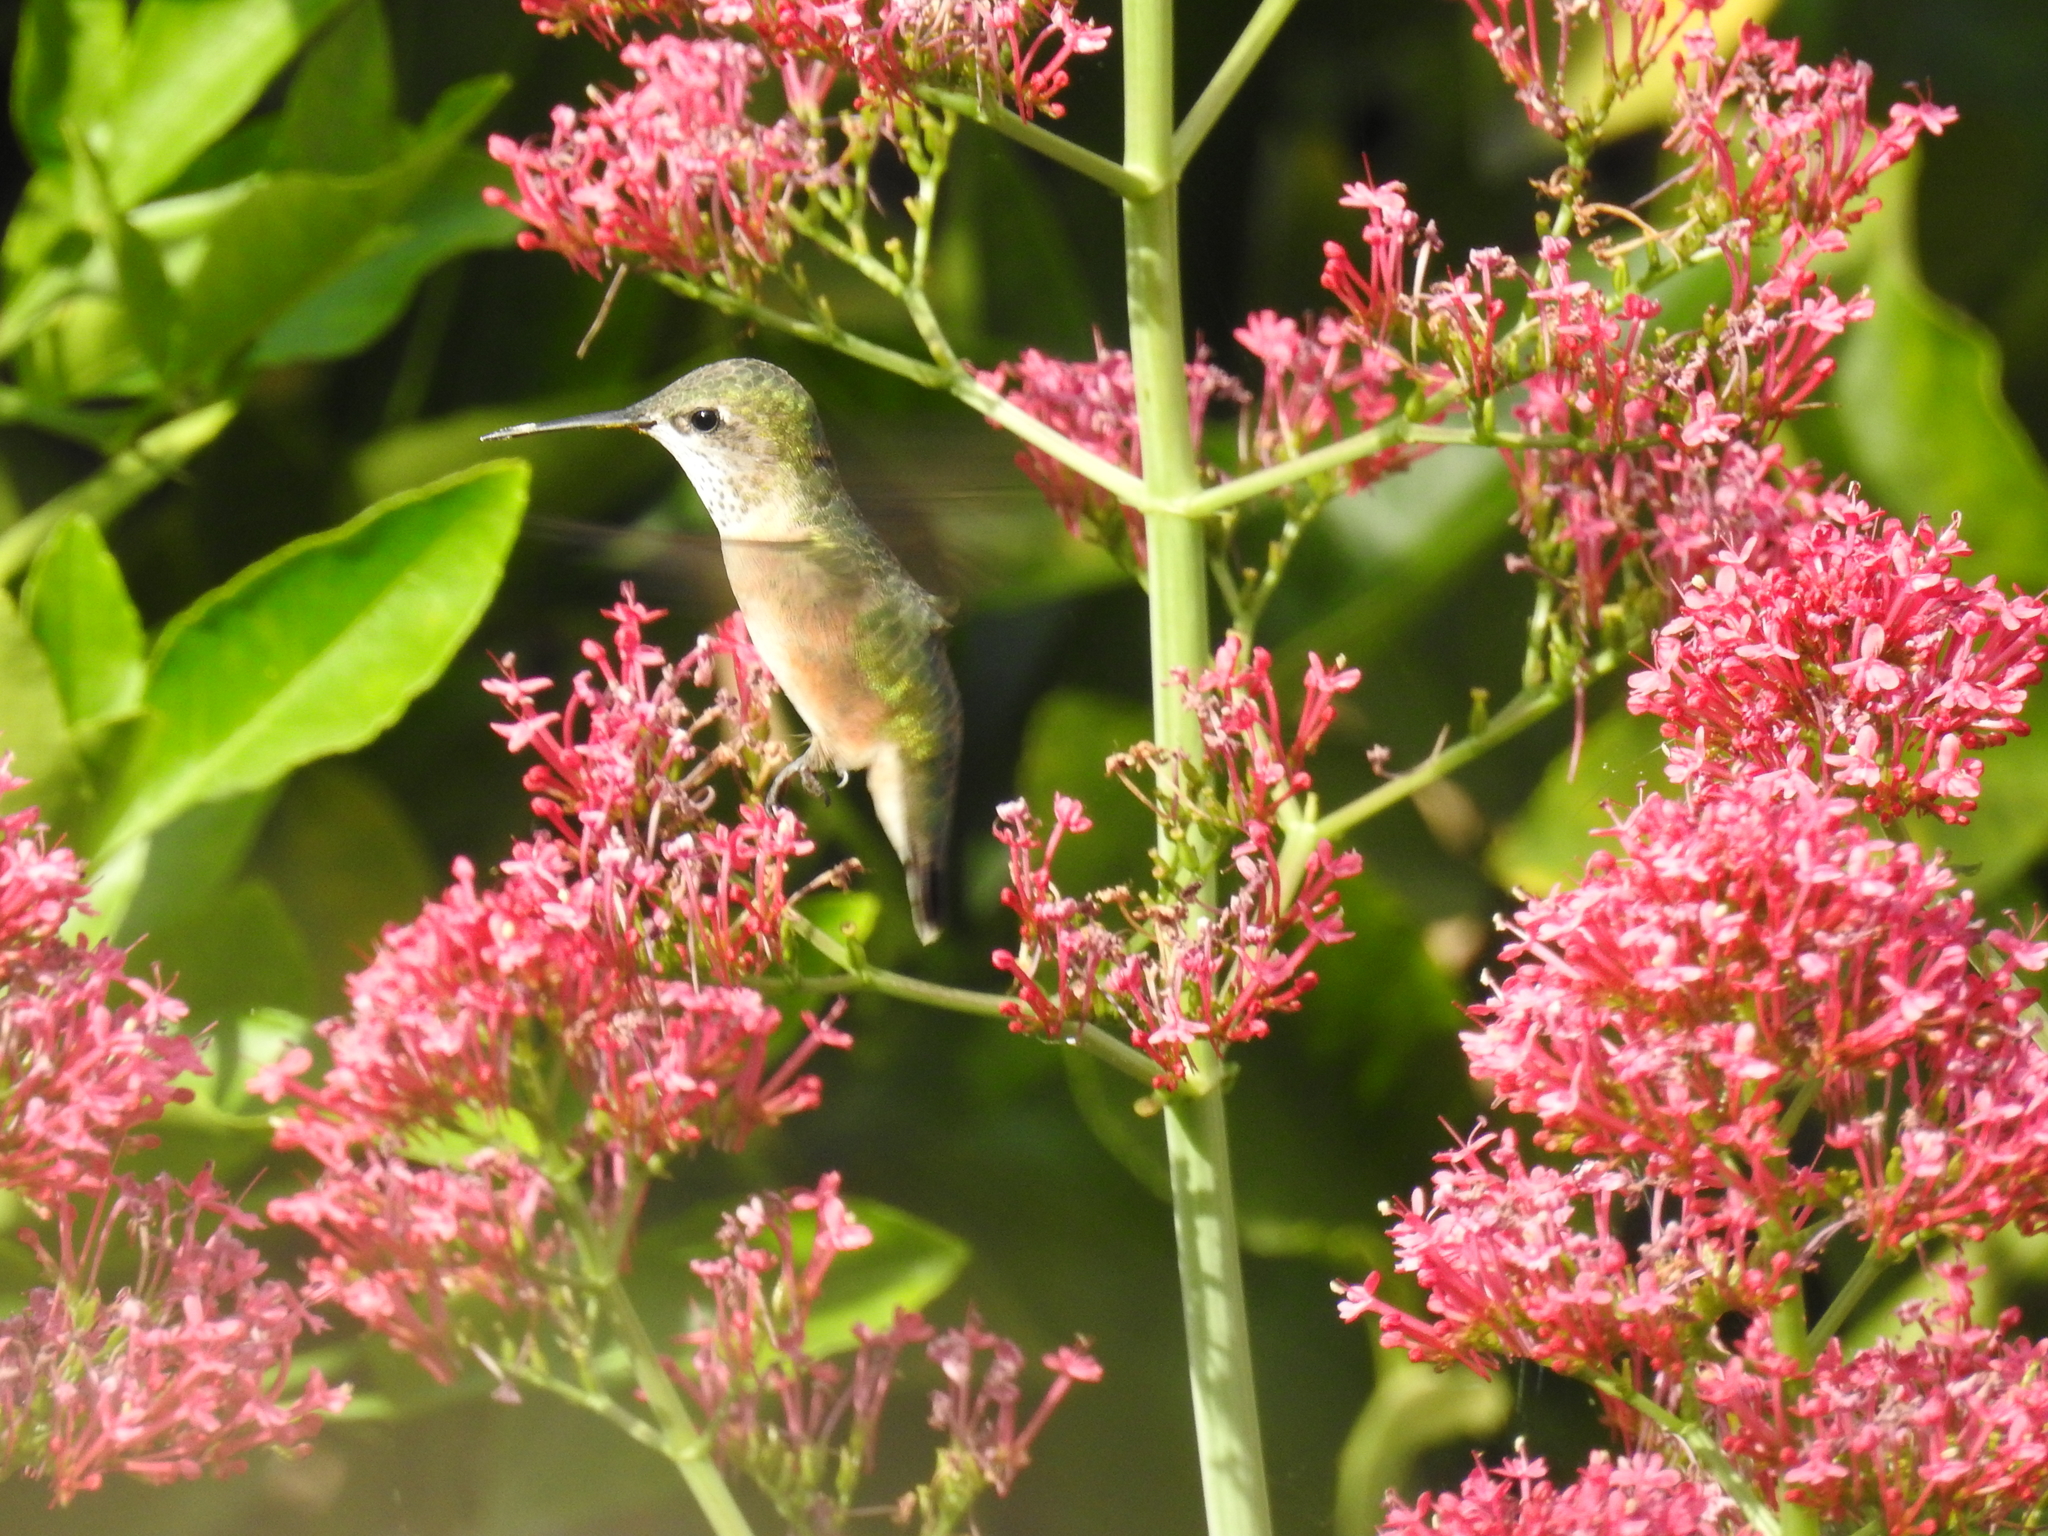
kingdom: Animalia
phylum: Chordata
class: Aves
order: Apodiformes
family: Trochilidae
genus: Selasphorus
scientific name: Selasphorus calliope
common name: Calliope hummingbird
